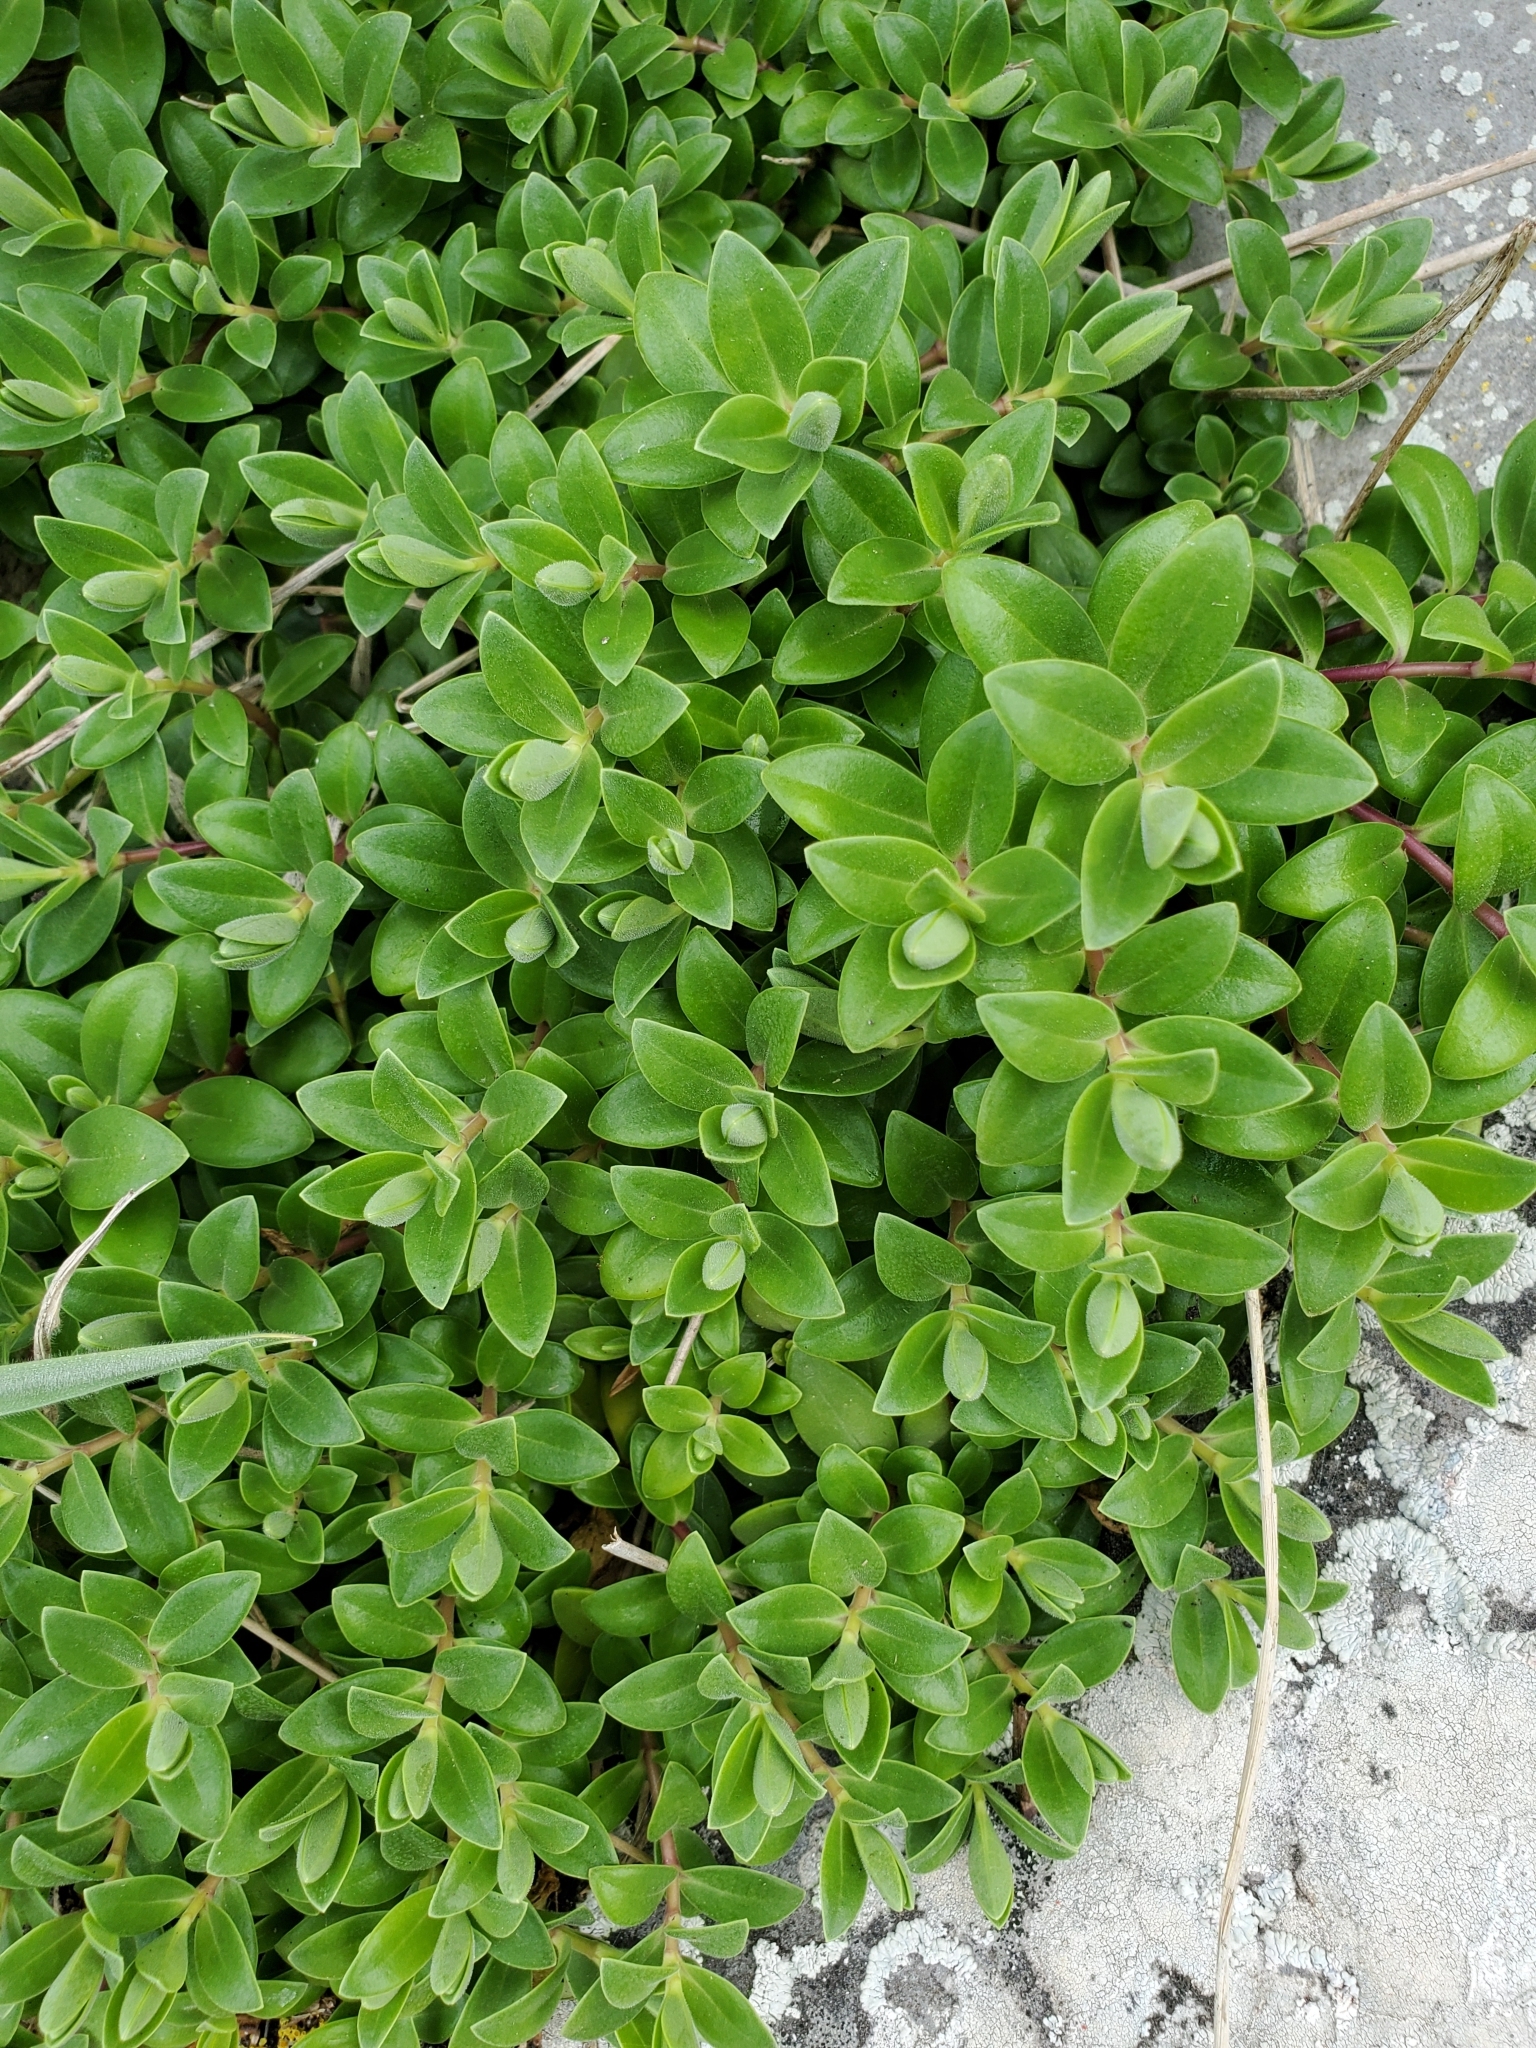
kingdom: Plantae
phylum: Tracheophyta
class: Magnoliopsida
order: Lamiales
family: Plantaginaceae
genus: Veronica
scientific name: Veronica chathamica
